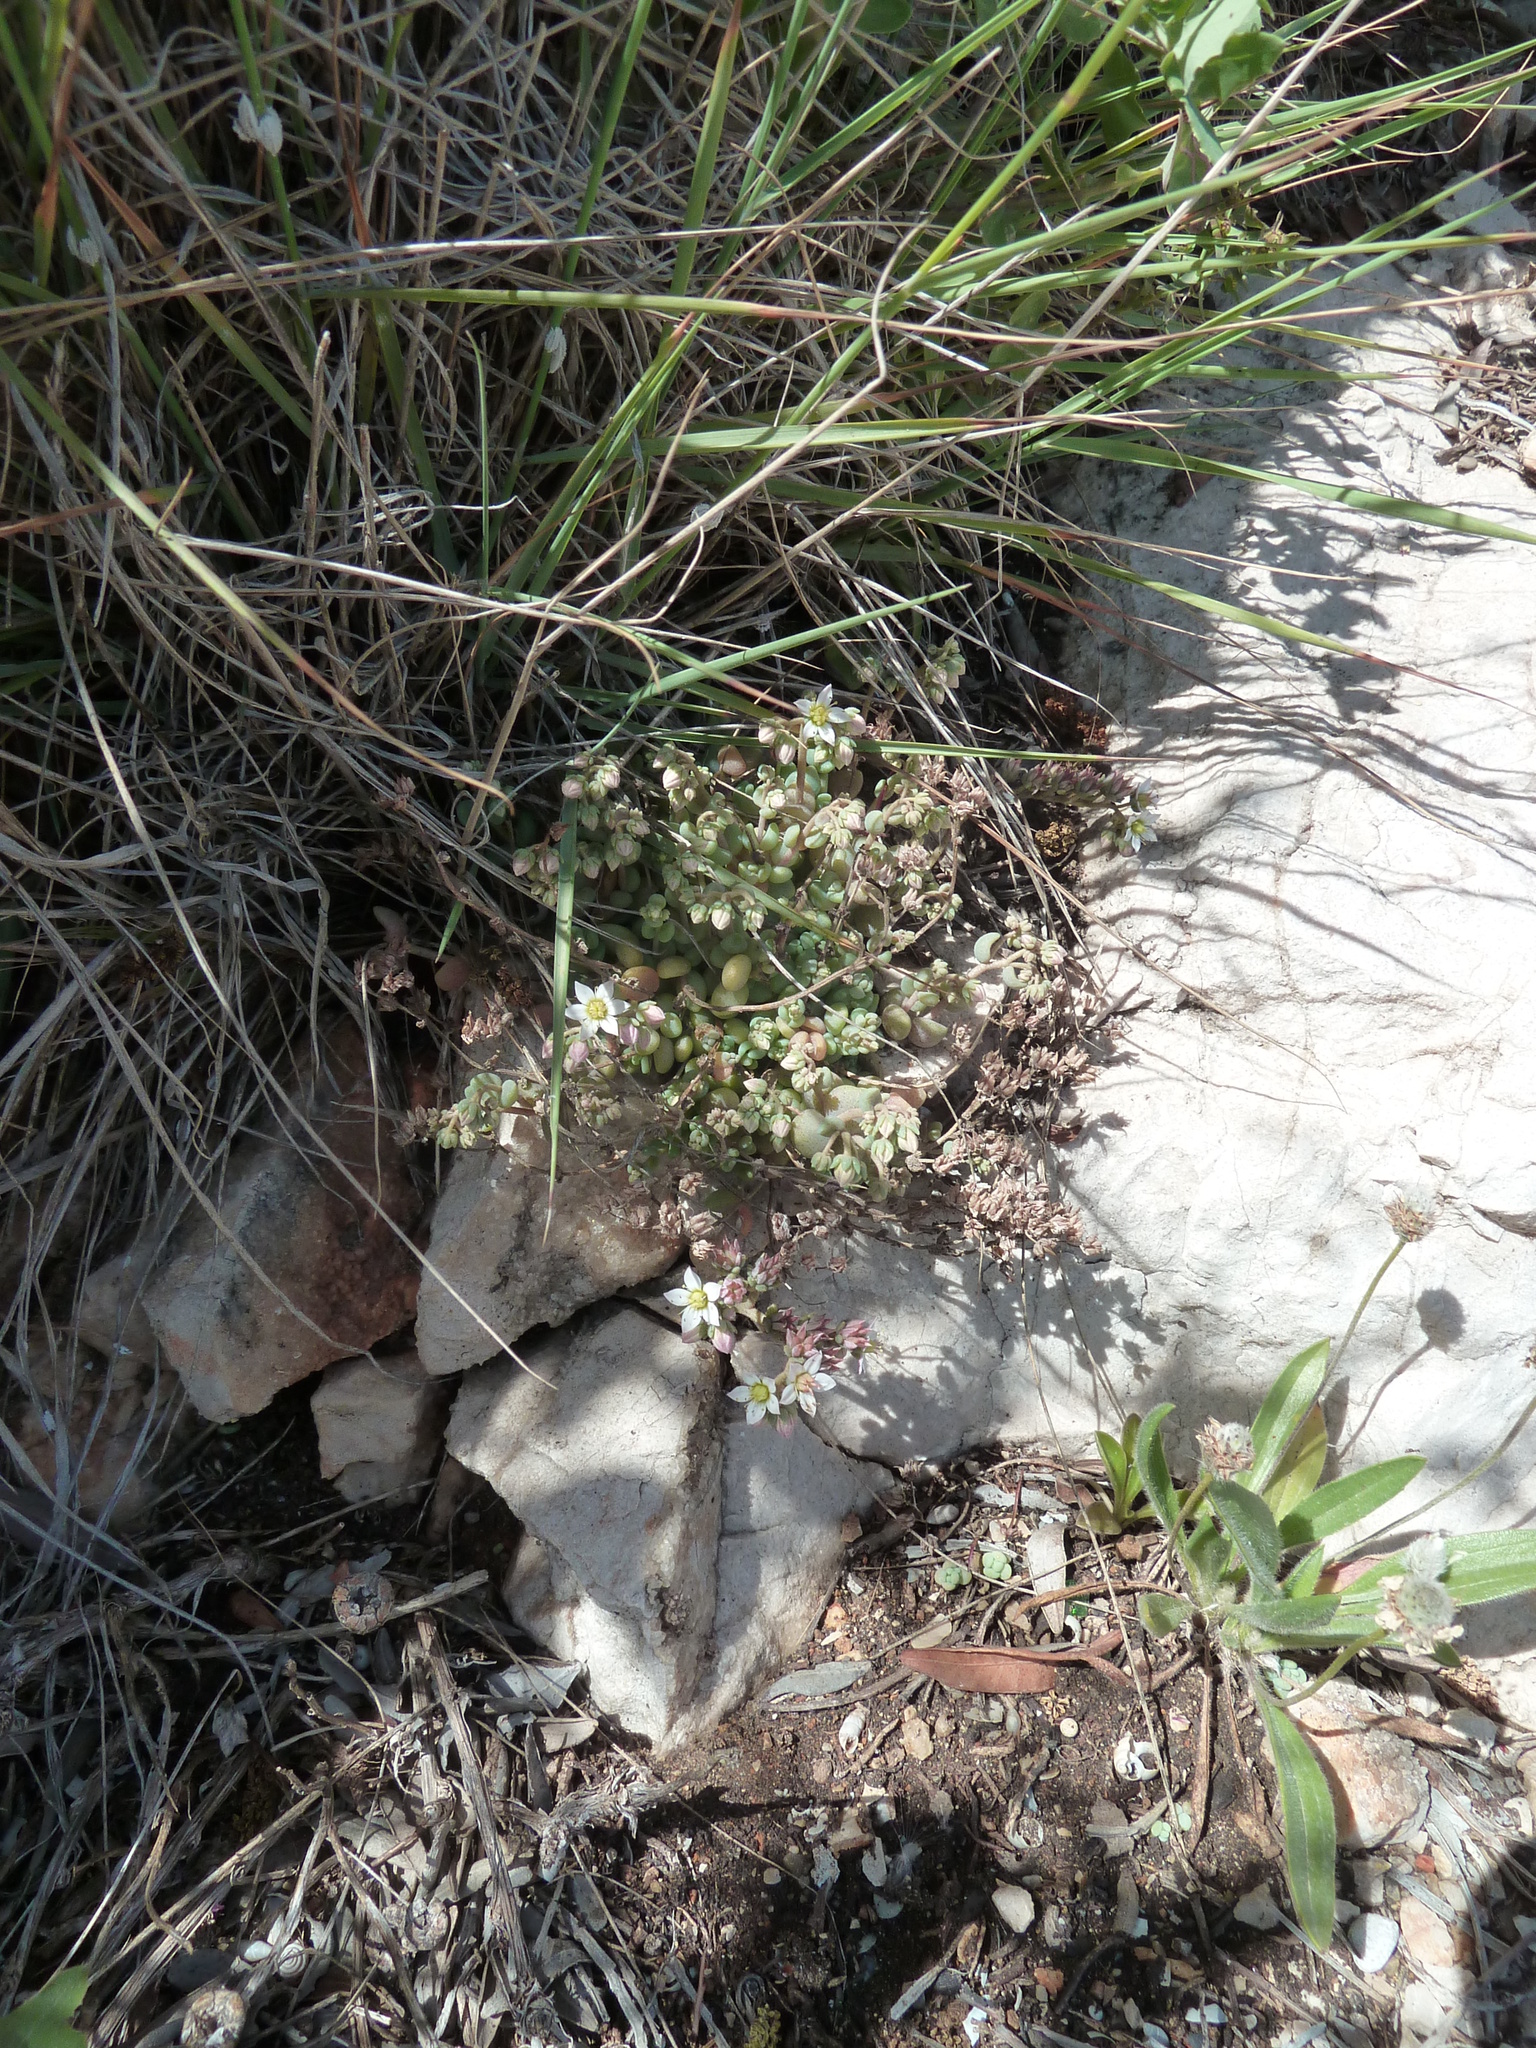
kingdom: Plantae
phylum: Tracheophyta
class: Magnoliopsida
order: Saxifragales
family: Crassulaceae
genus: Sedum
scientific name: Sedum dasyphyllum
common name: Thick-leaf stonecrop
